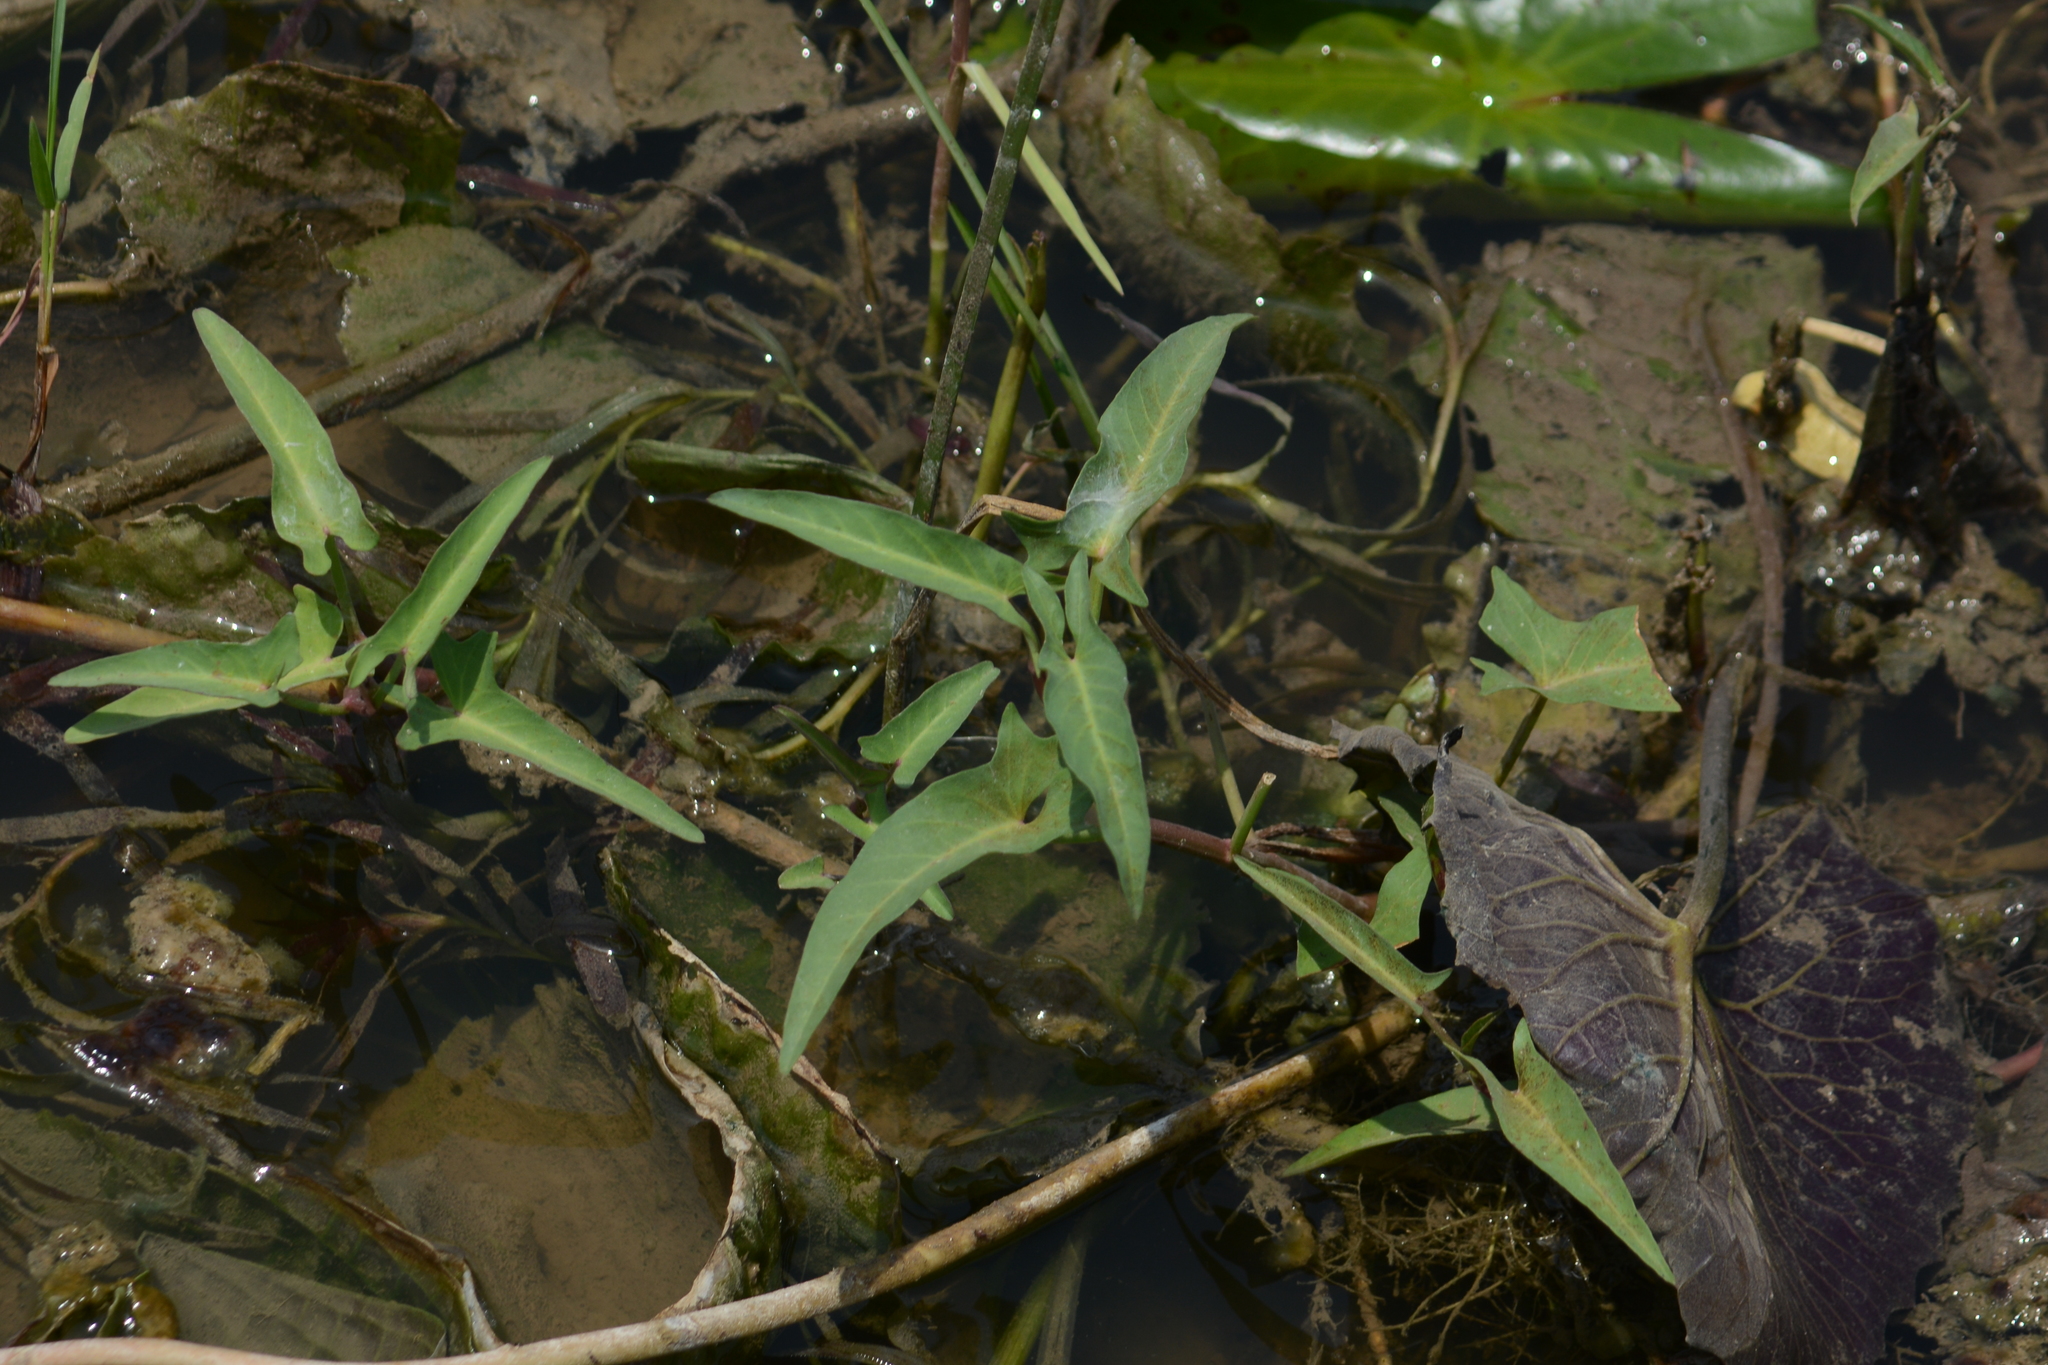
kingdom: Plantae
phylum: Tracheophyta
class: Magnoliopsida
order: Solanales
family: Convolvulaceae
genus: Ipomoea
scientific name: Ipomoea aquatica
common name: Swamp morning-glory
